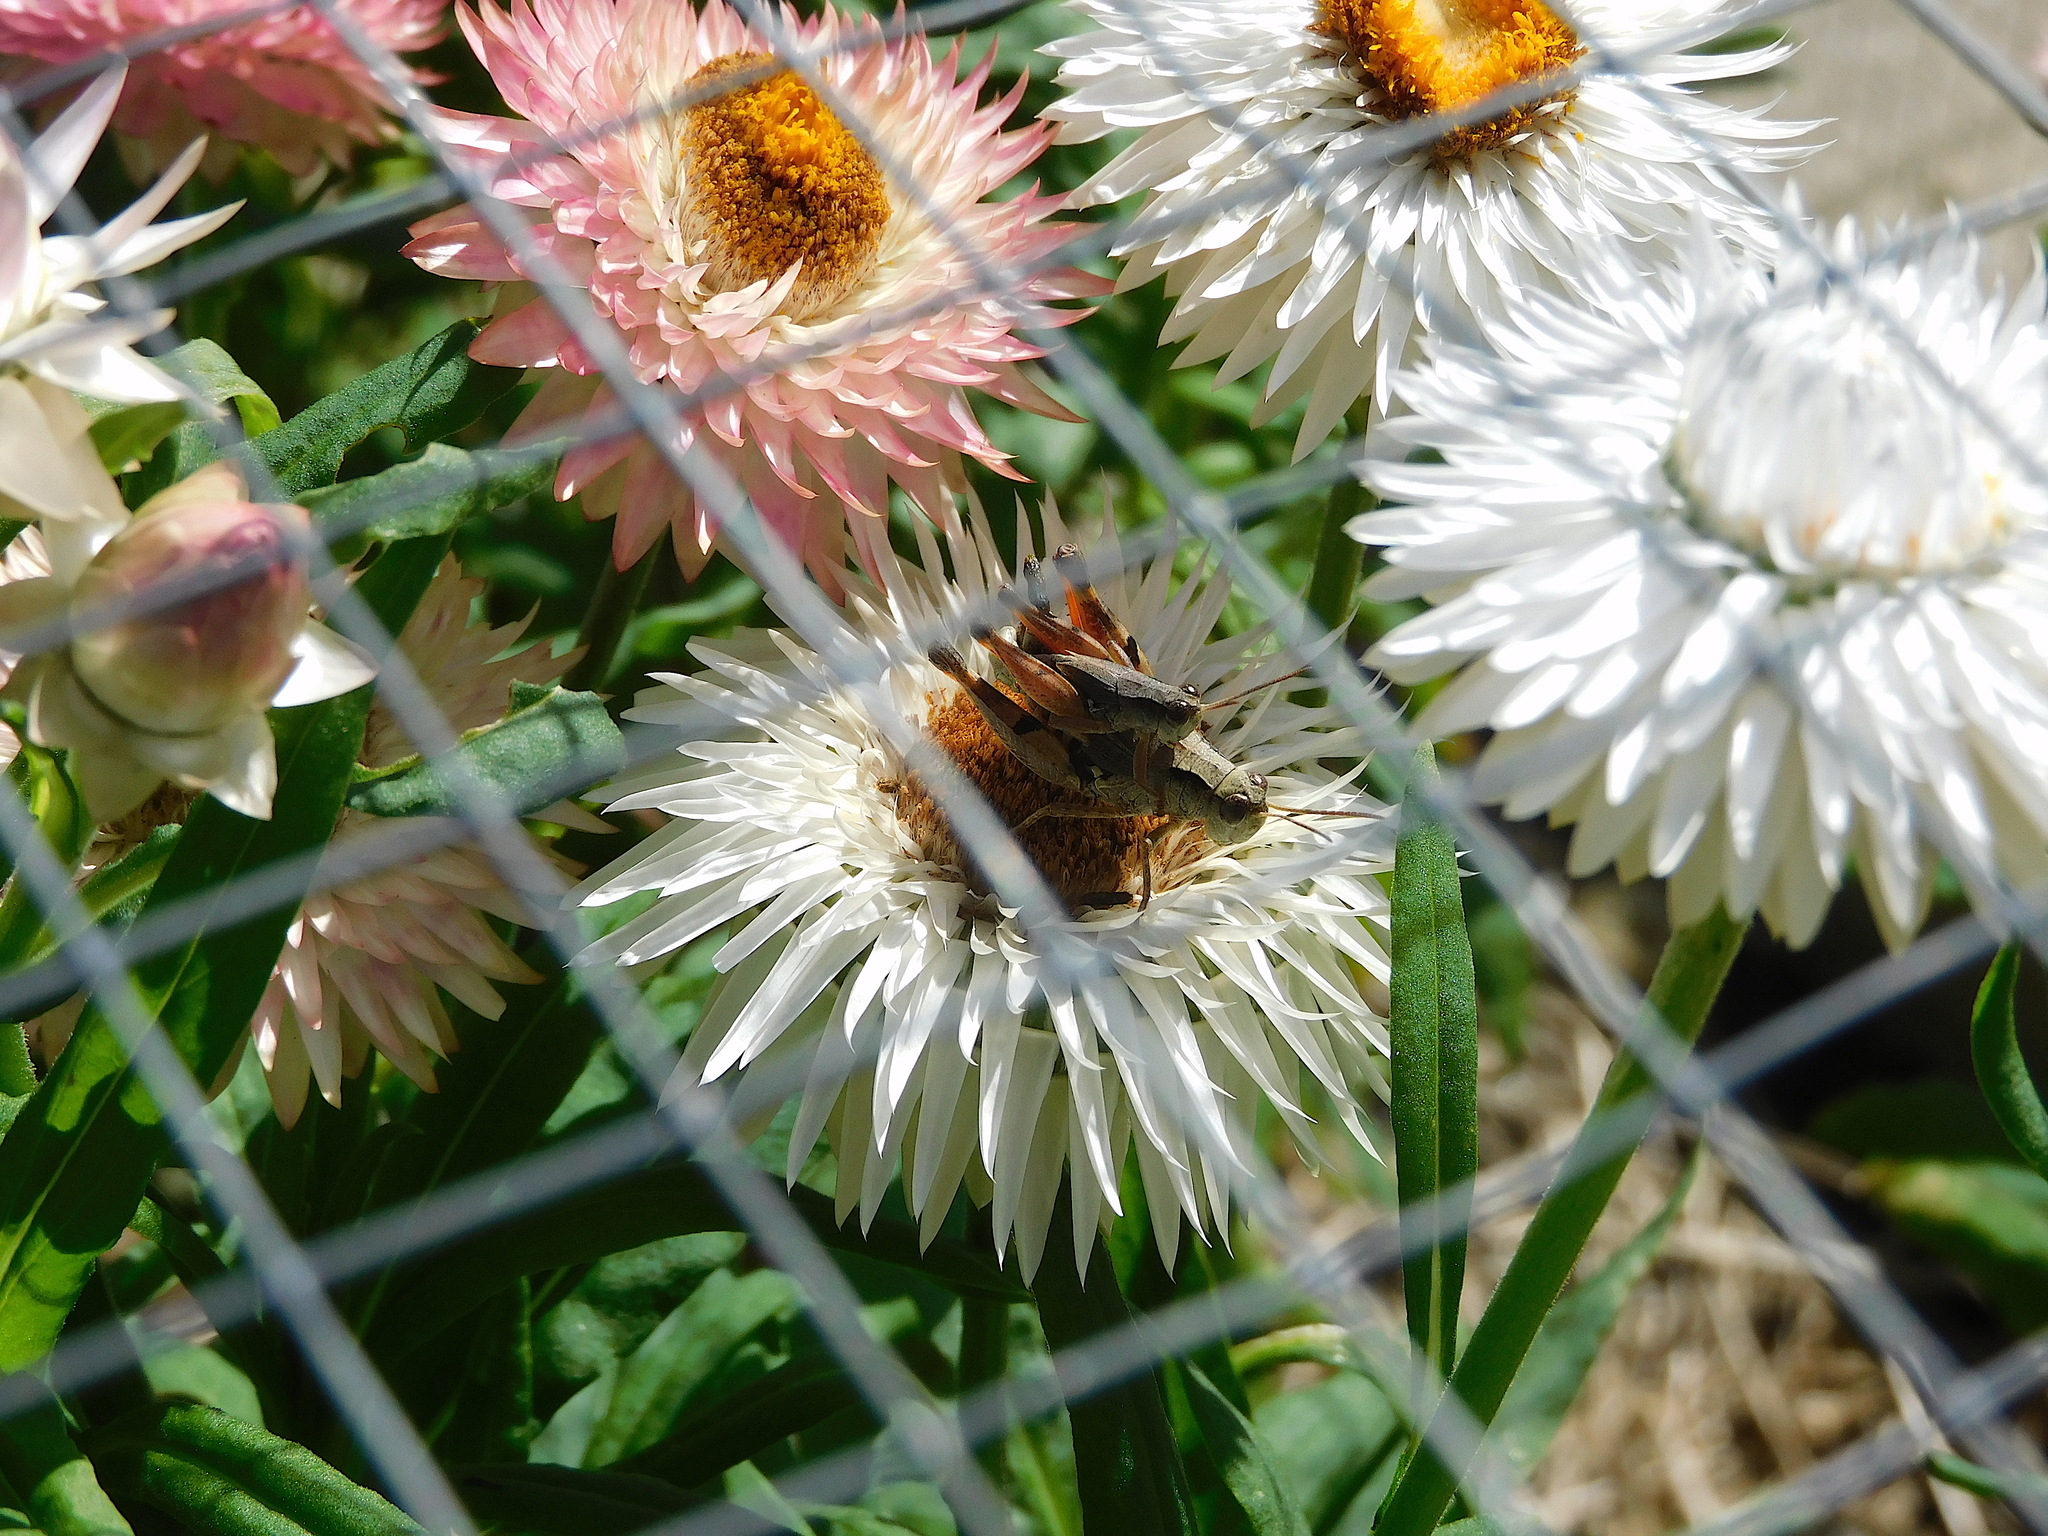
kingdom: Animalia
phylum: Arthropoda
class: Insecta
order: Orthoptera
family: Acrididae
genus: Phaulacridium
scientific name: Phaulacridium vittatum
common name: Wingless grasshopper
